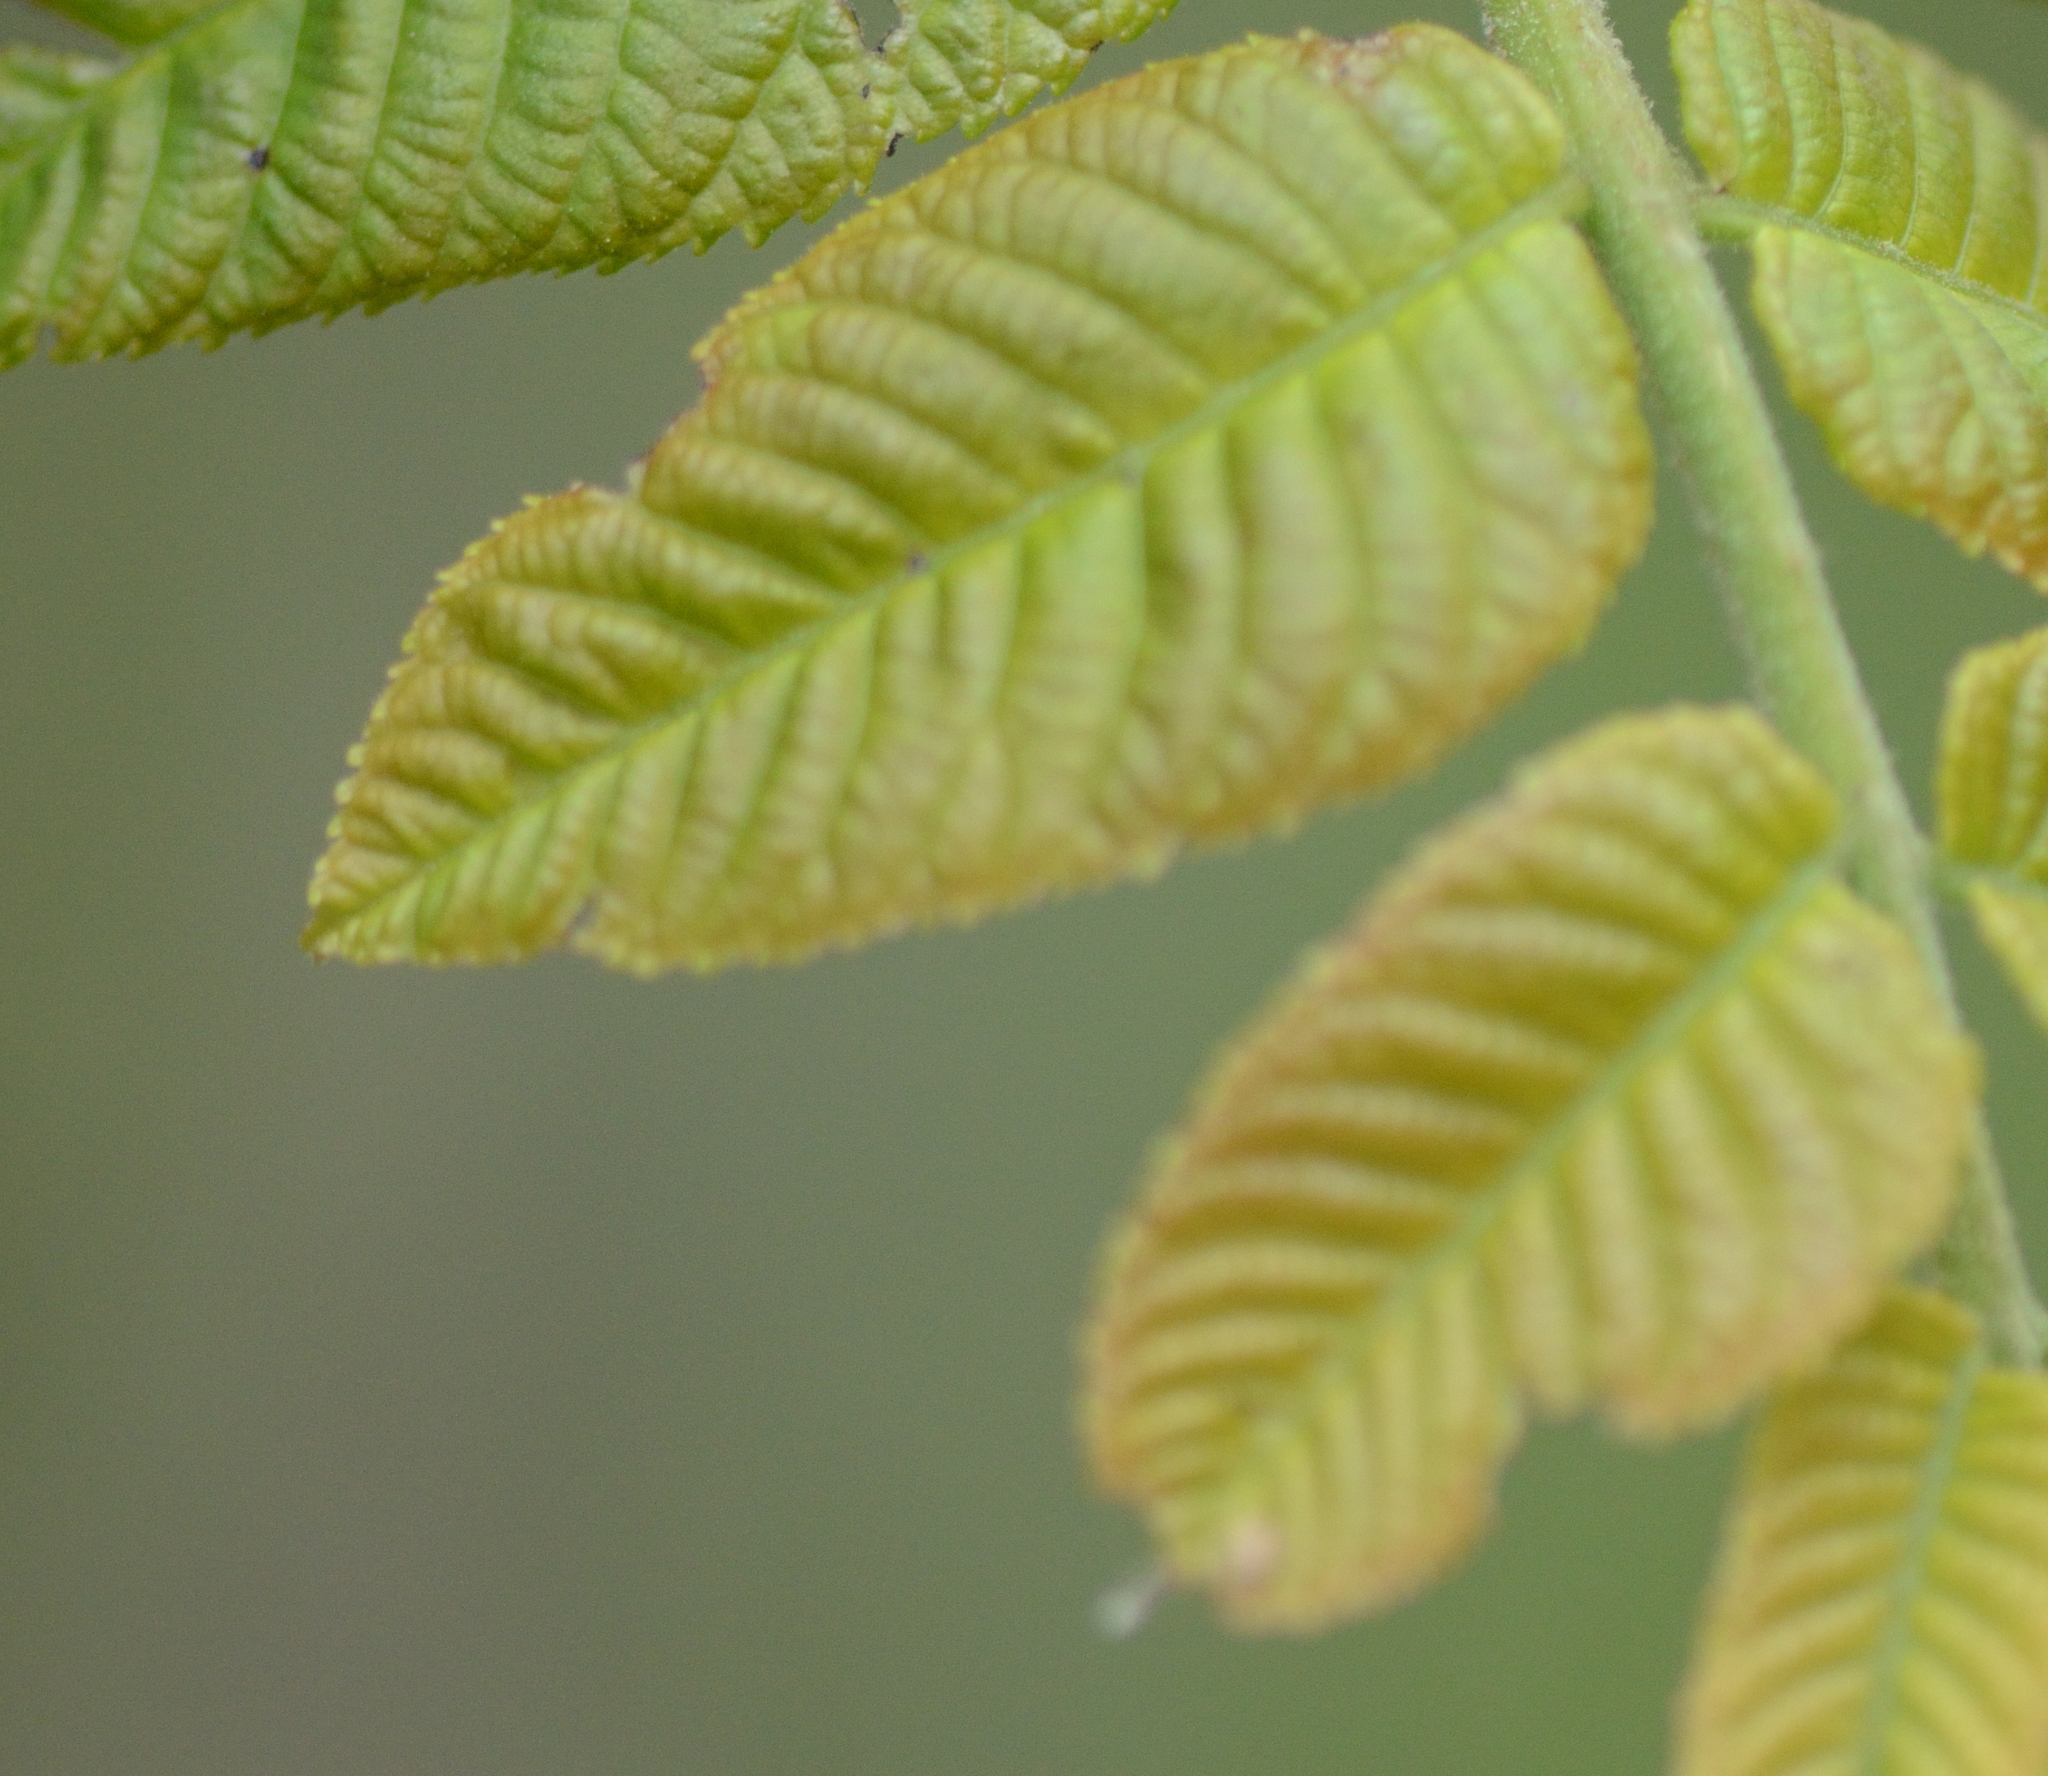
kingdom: Plantae
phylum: Tracheophyta
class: Magnoliopsida
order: Fagales
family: Juglandaceae
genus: Juglans
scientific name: Juglans nigra
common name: Black walnut
